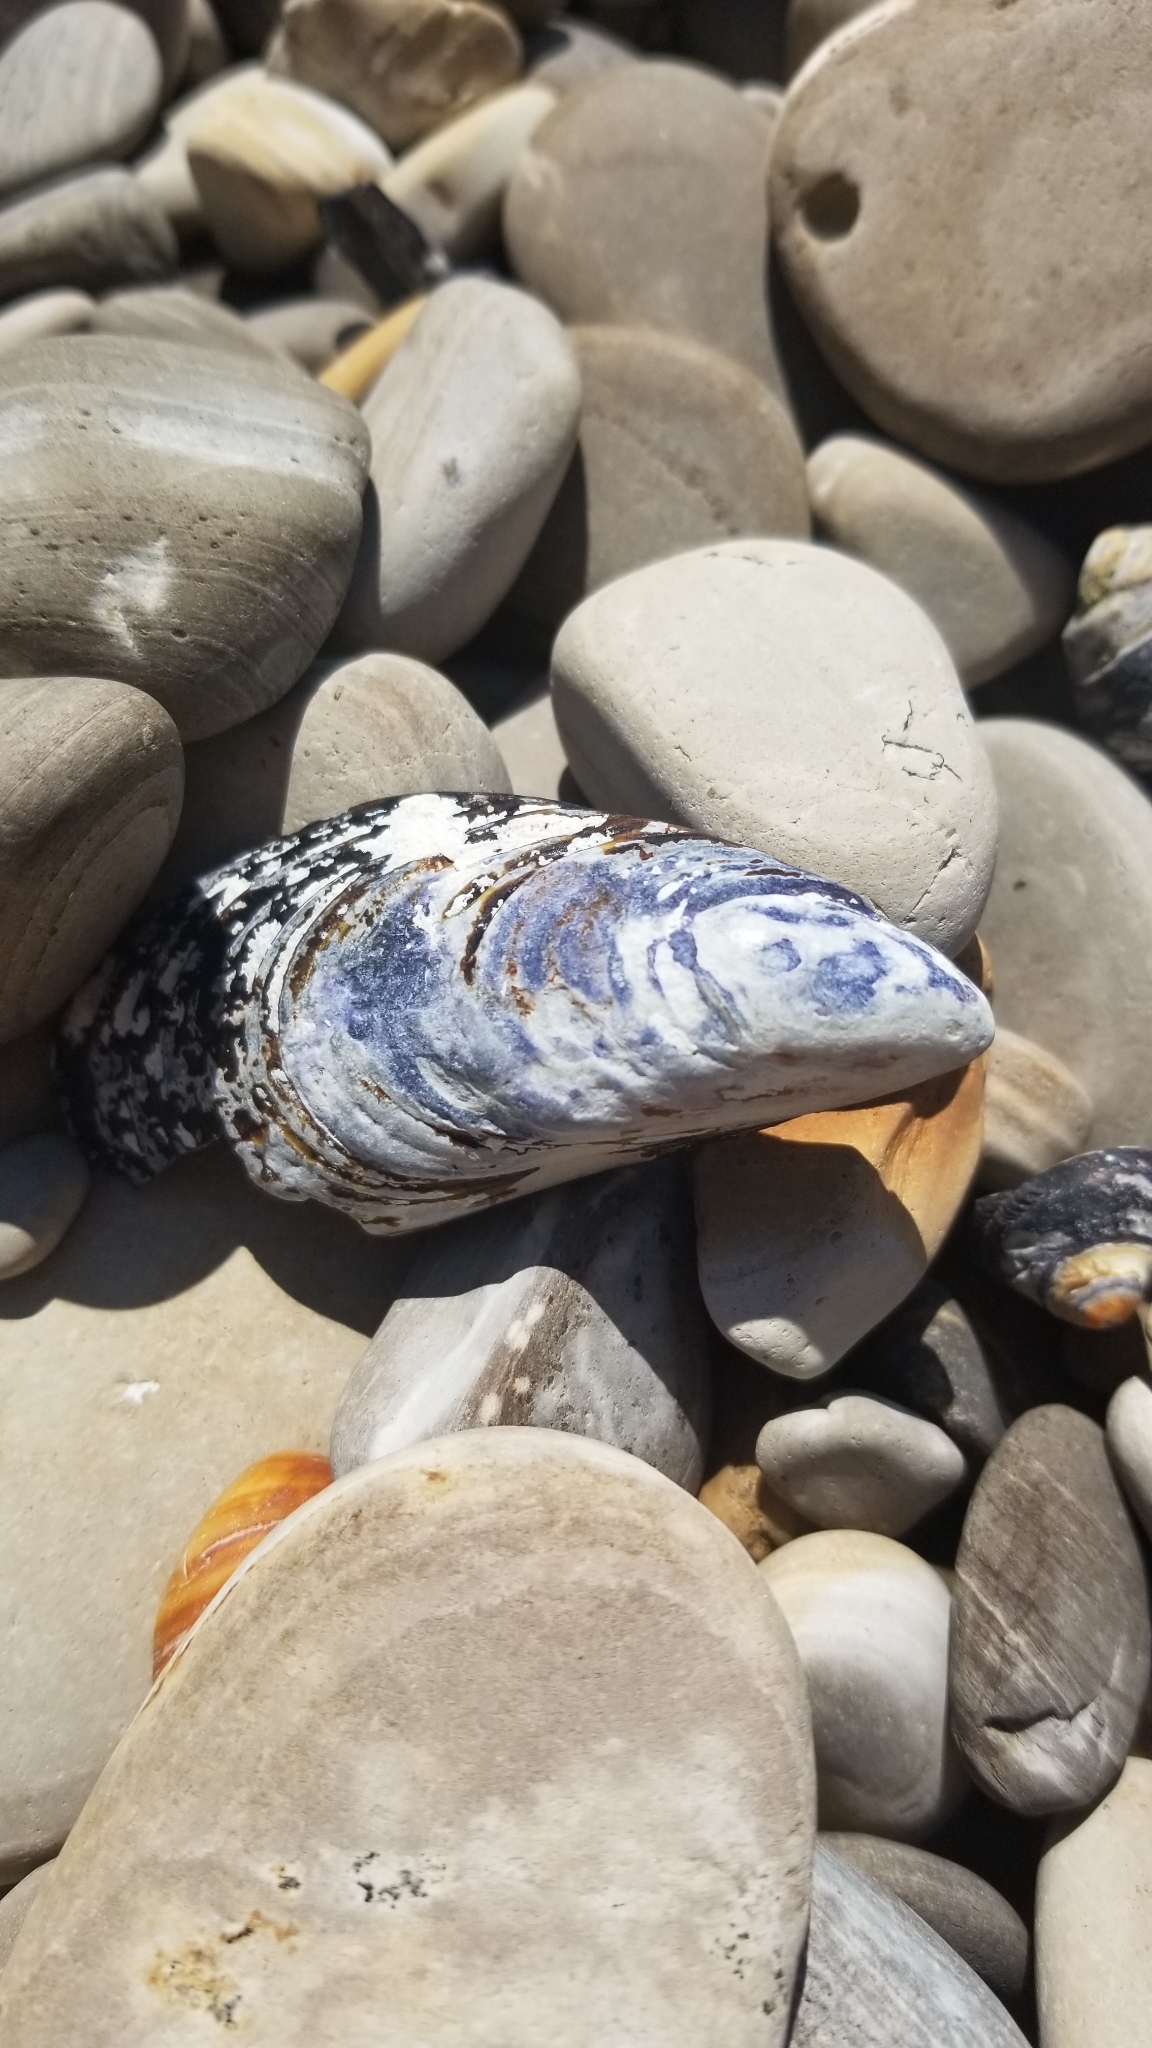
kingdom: Animalia
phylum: Mollusca
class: Bivalvia
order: Mytilida
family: Mytilidae
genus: Mytilus
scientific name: Mytilus californianus
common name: California mussel
